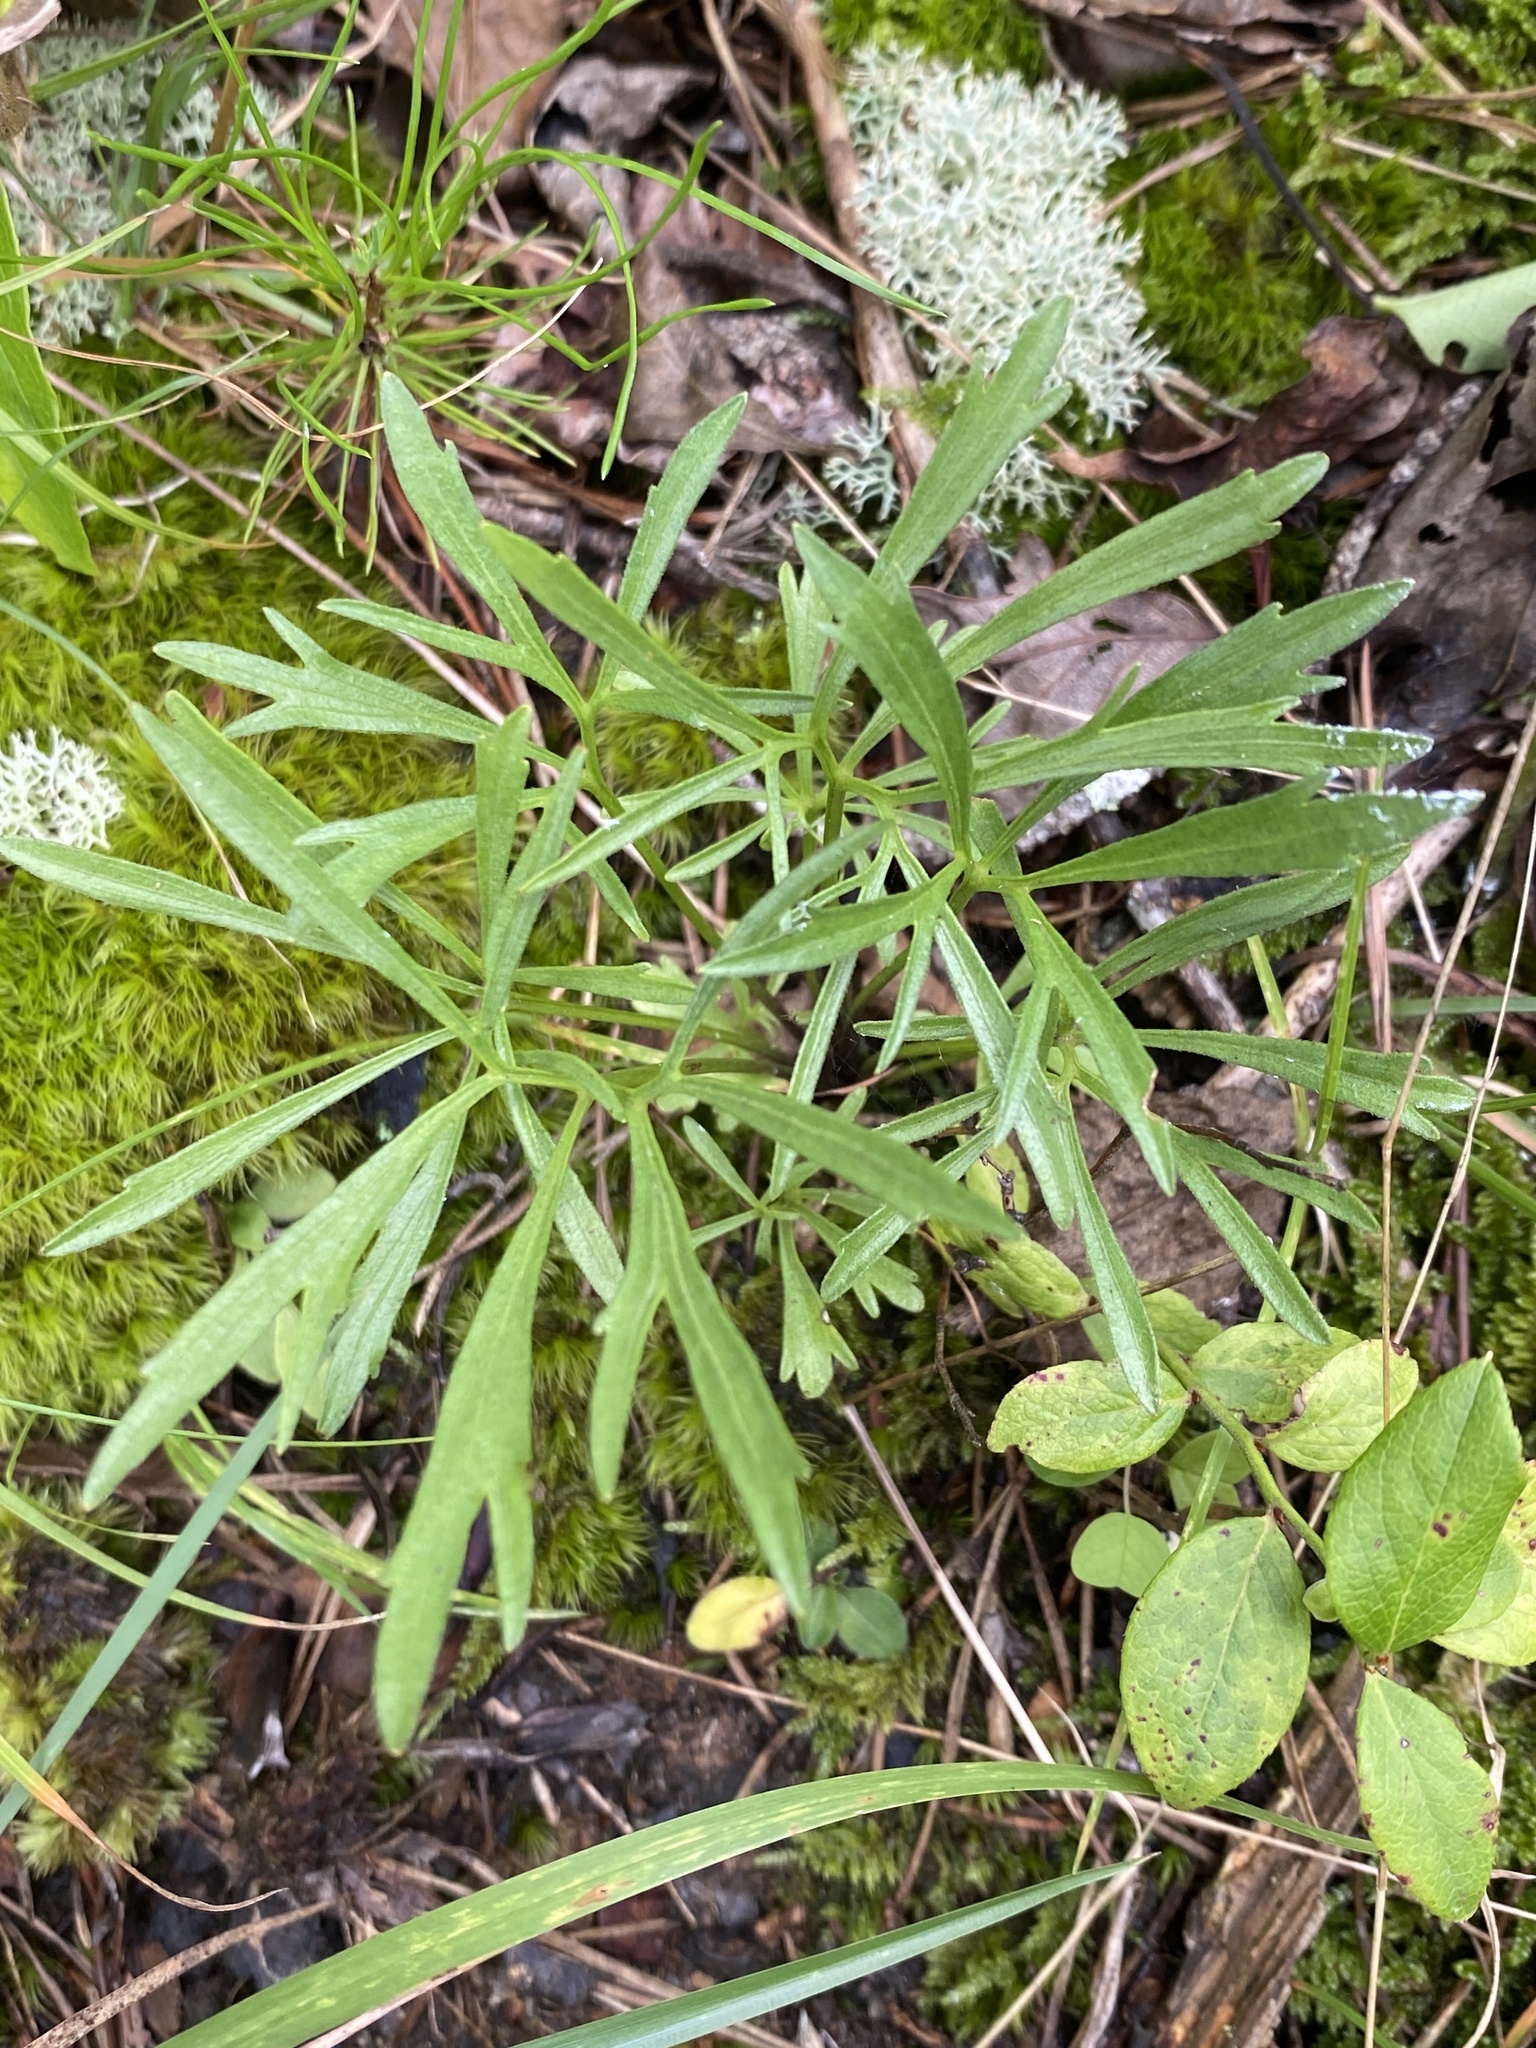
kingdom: Plantae
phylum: Tracheophyta
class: Magnoliopsida
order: Malpighiales
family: Violaceae
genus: Viola
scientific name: Viola pedata
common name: Pansy violet
